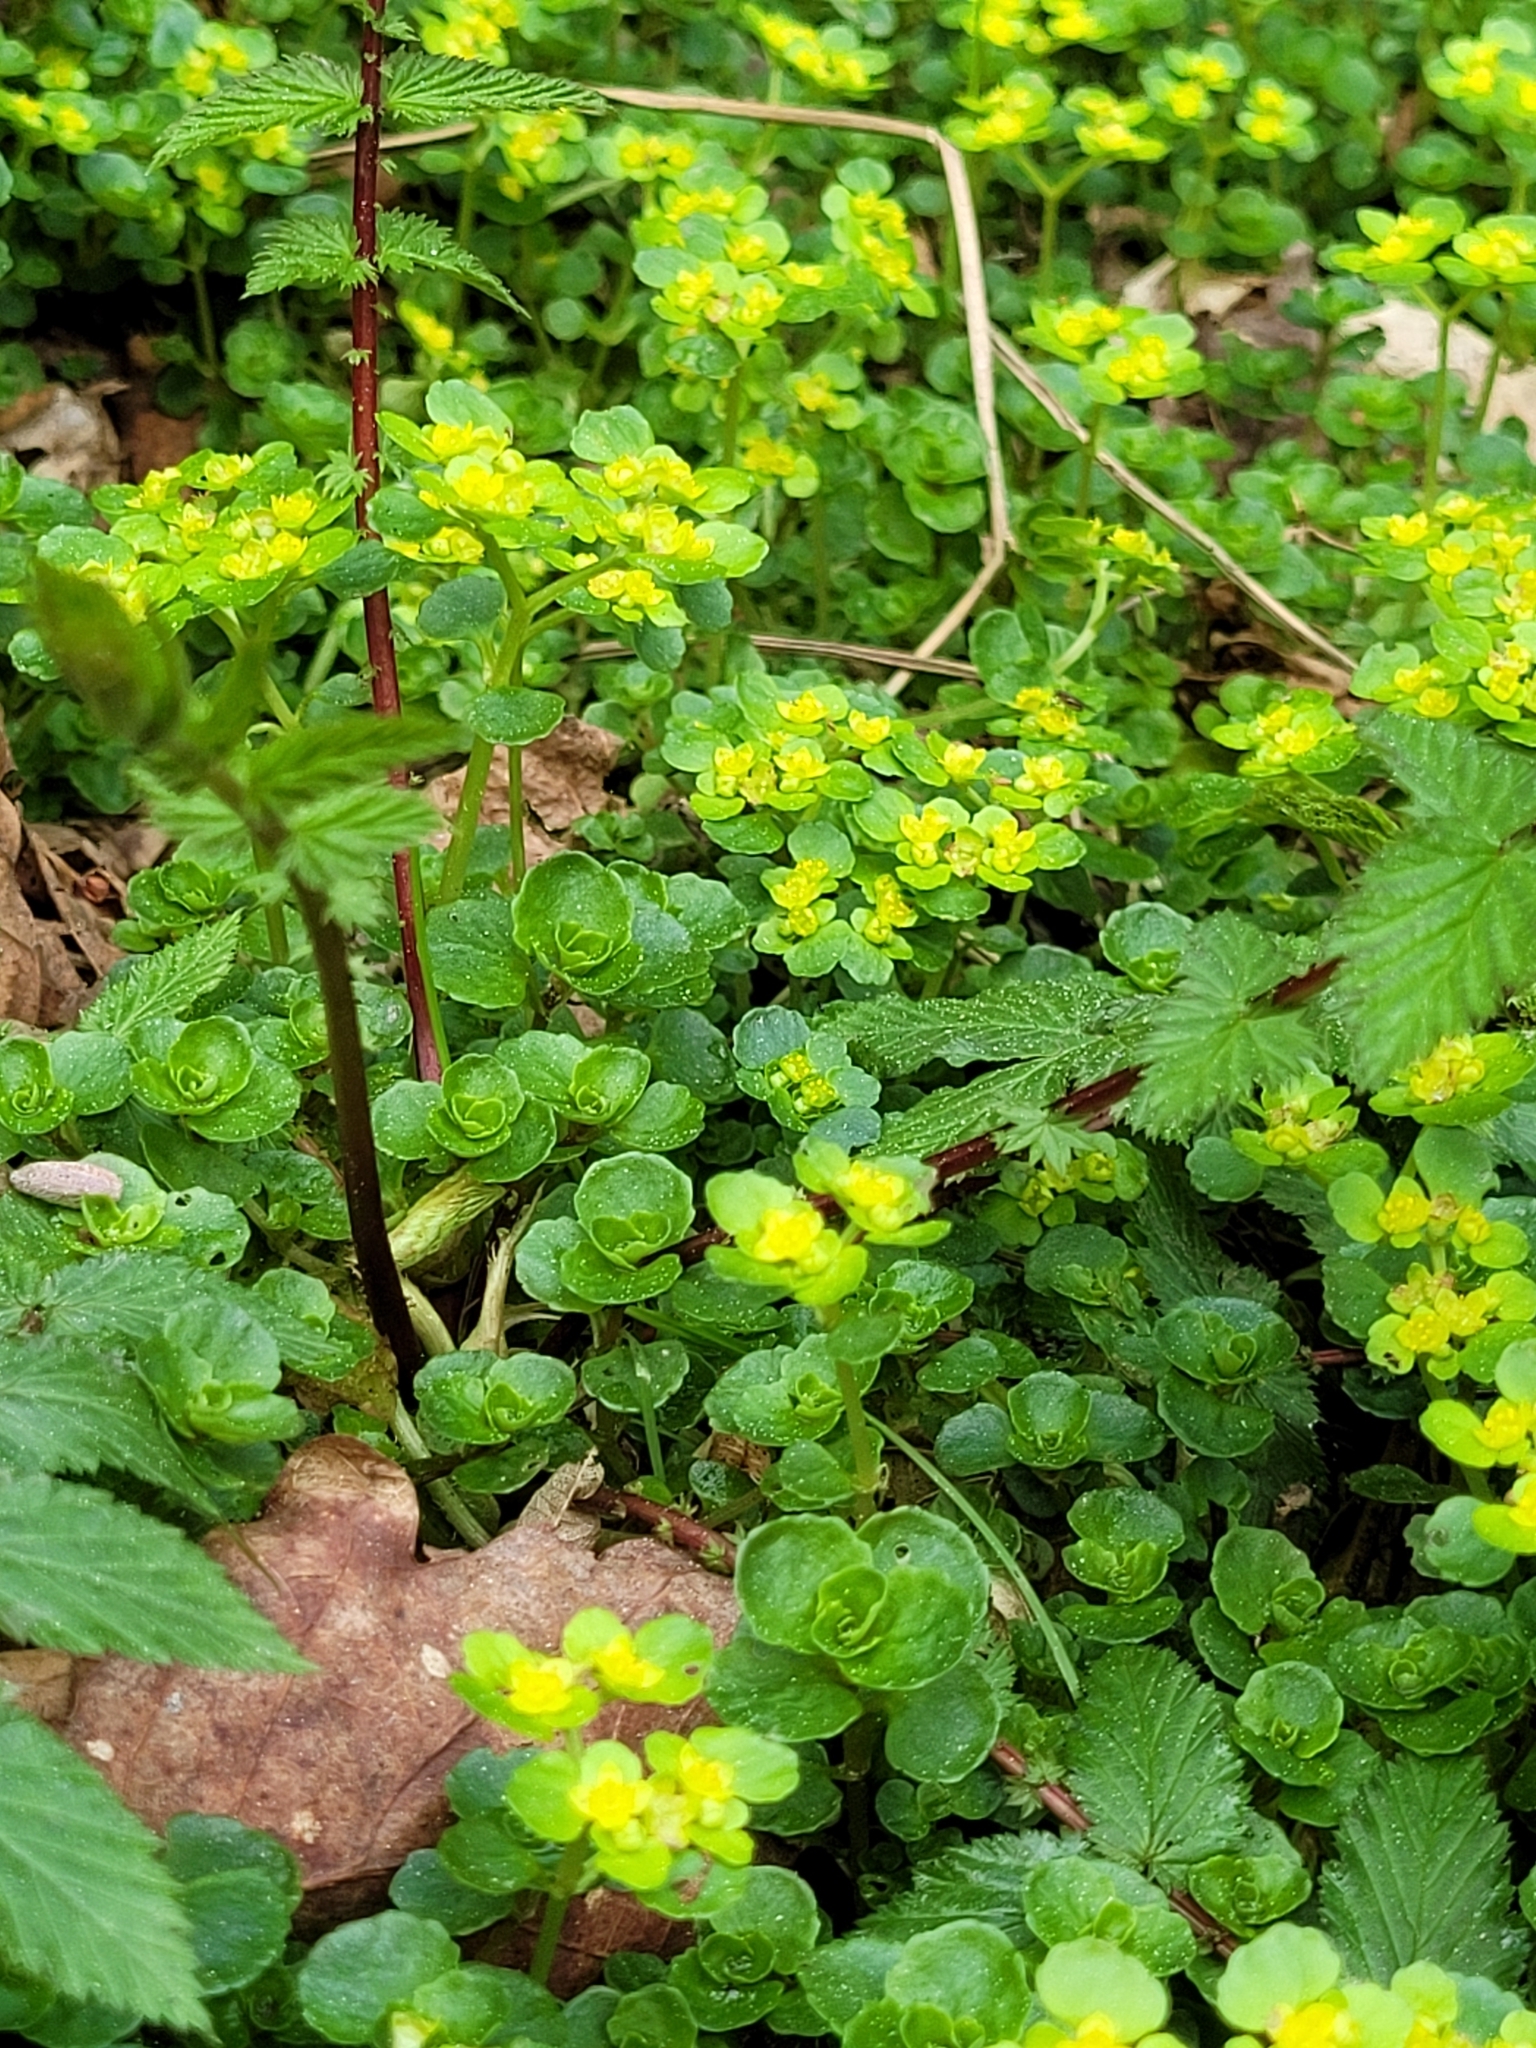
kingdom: Plantae
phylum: Tracheophyta
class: Magnoliopsida
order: Saxifragales
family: Saxifragaceae
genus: Chrysosplenium
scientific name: Chrysosplenium oppositifolium
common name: Opposite-leaved golden-saxifrage
